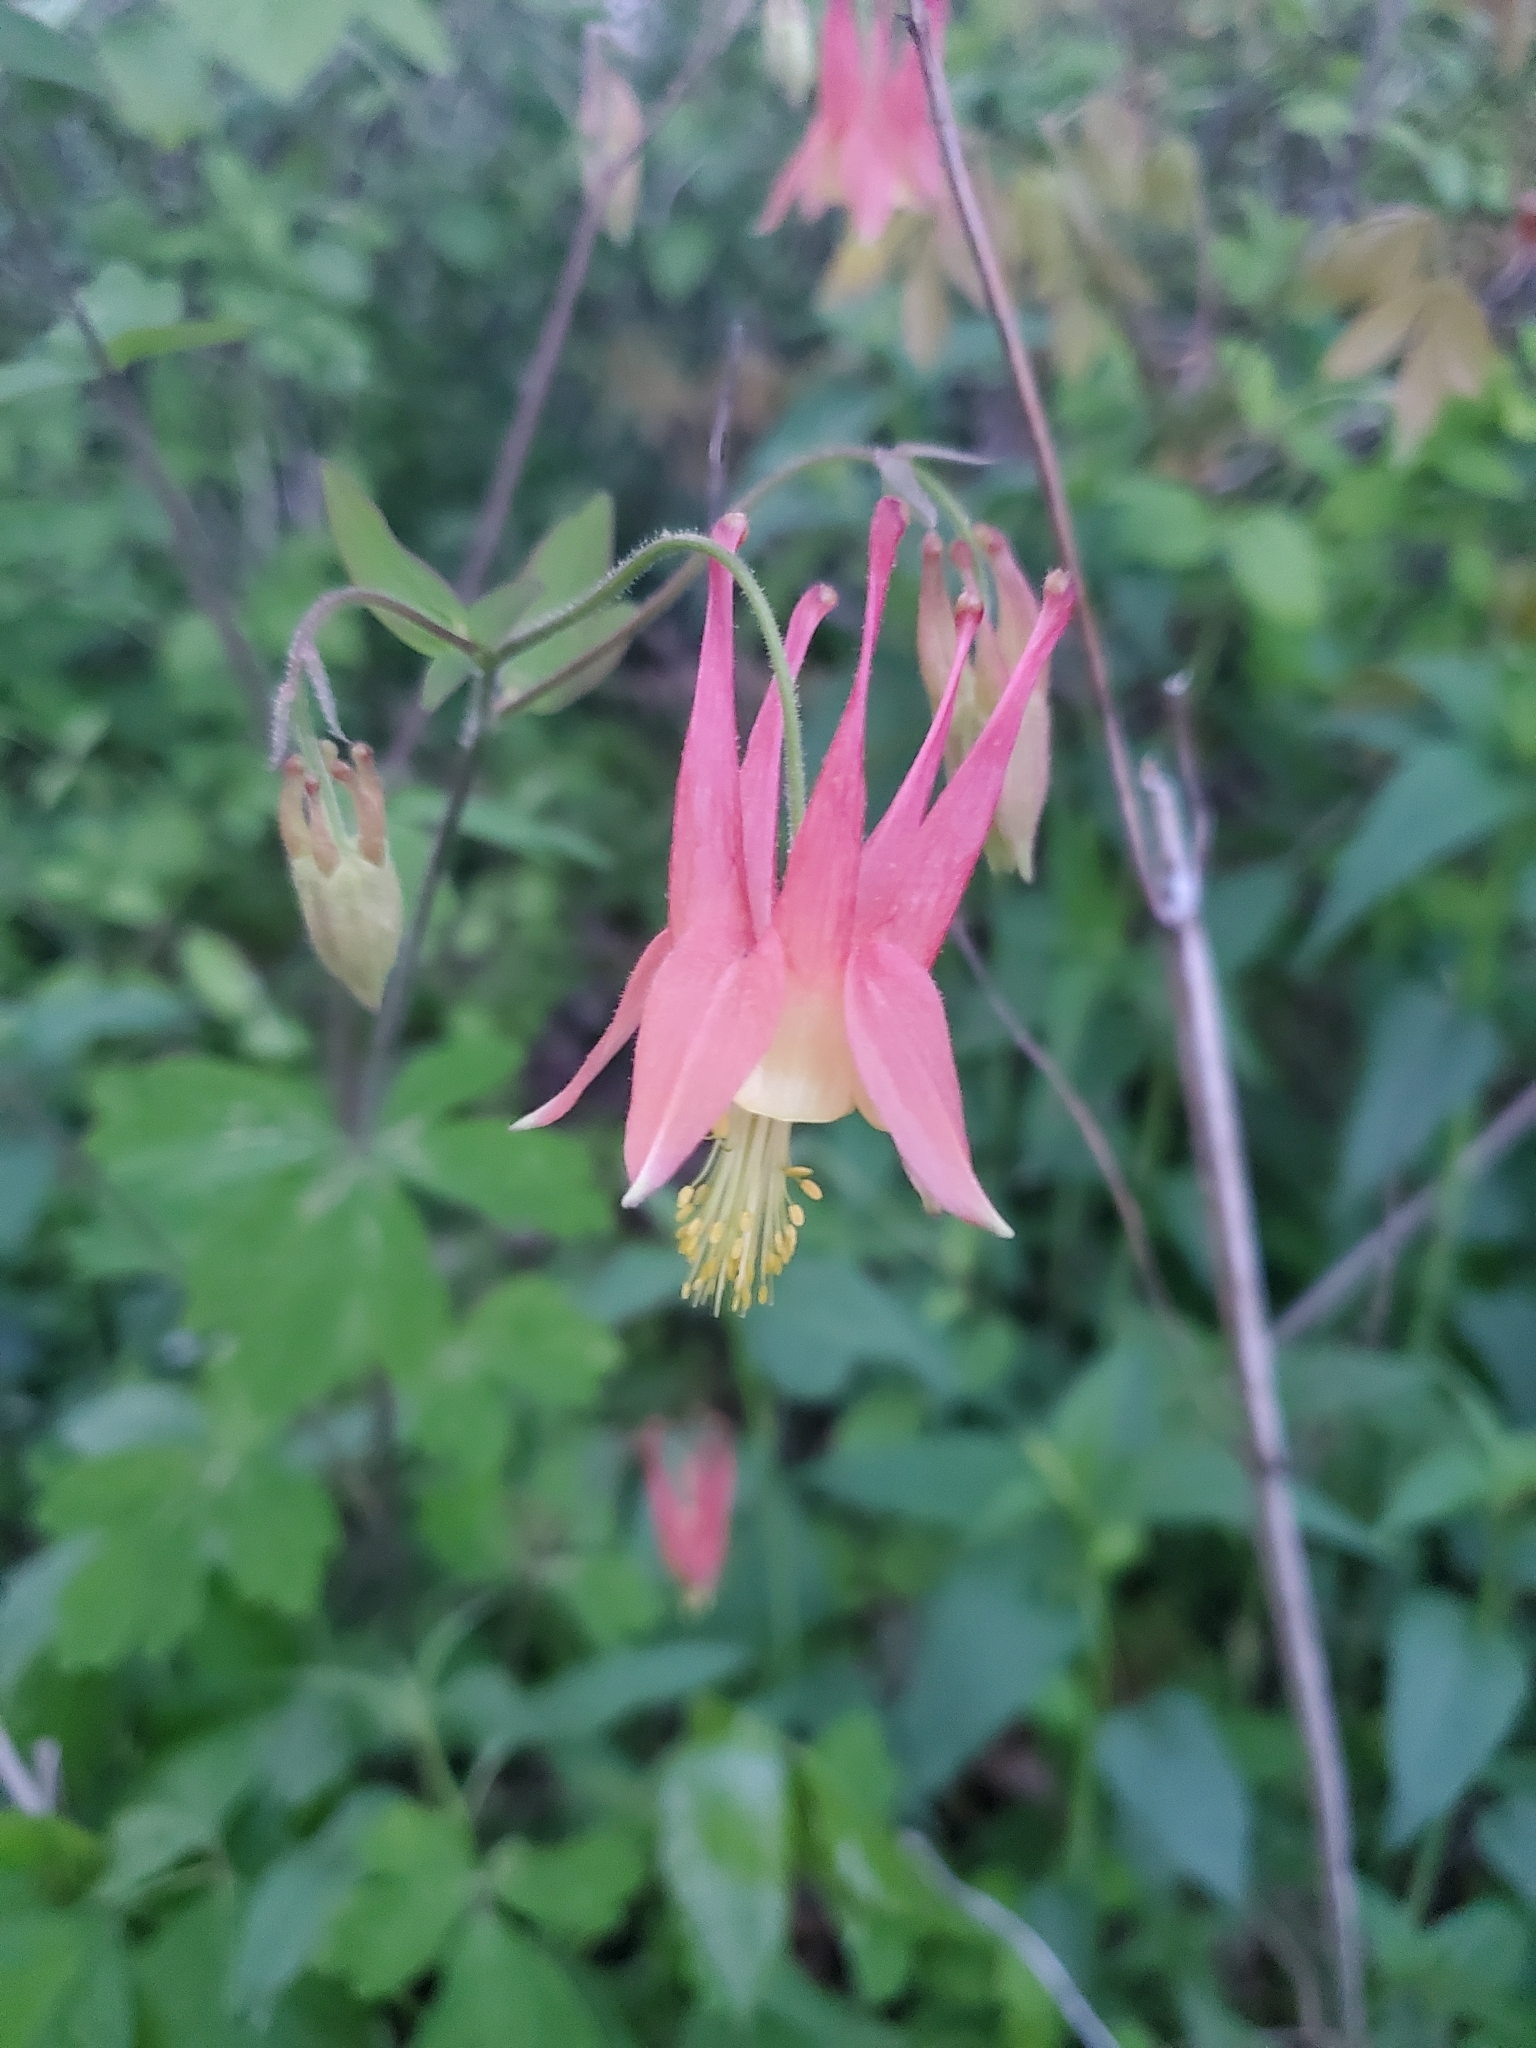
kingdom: Plantae
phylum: Tracheophyta
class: Magnoliopsida
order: Ranunculales
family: Ranunculaceae
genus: Aquilegia
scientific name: Aquilegia canadensis
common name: American columbine
